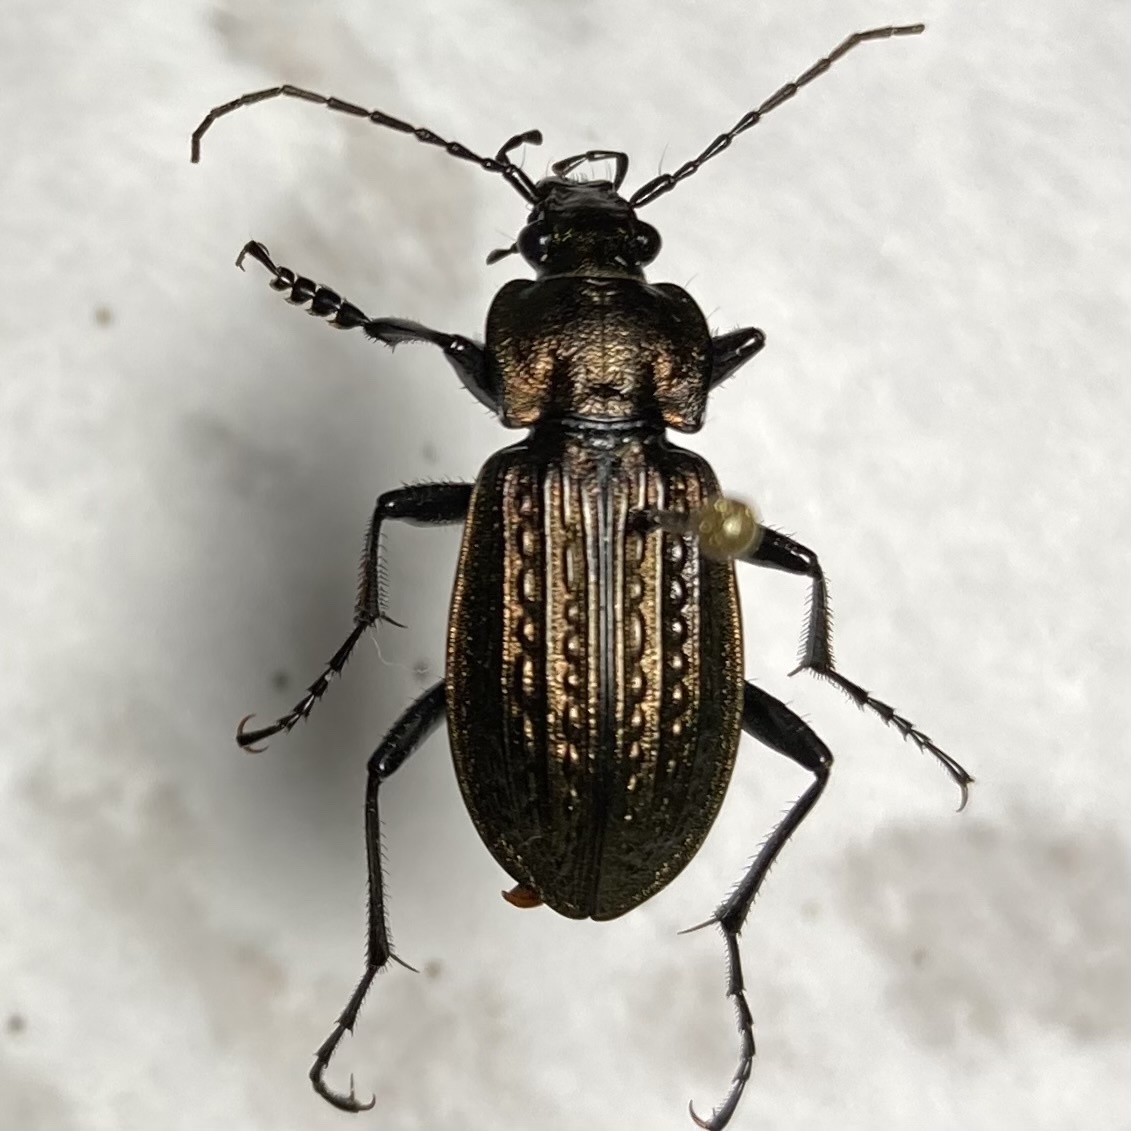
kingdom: Animalia
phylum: Arthropoda
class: Insecta
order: Coleoptera
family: Carabidae
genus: Carabus
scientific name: Carabus granulatus
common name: Granulate ground beetle
